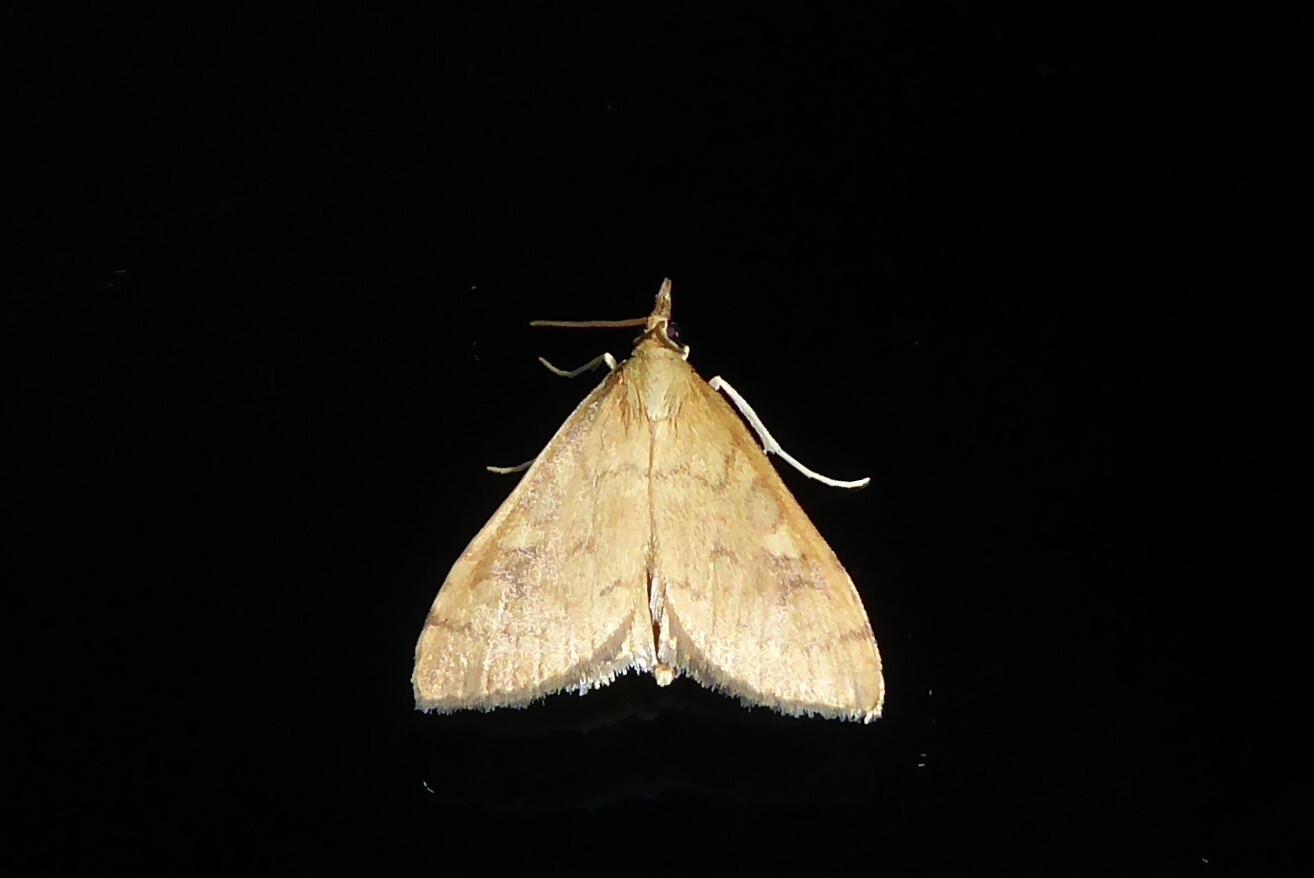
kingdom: Animalia
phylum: Arthropoda
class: Insecta
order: Lepidoptera
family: Crambidae
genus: Udea
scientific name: Udea Mnesictena flavidalis
